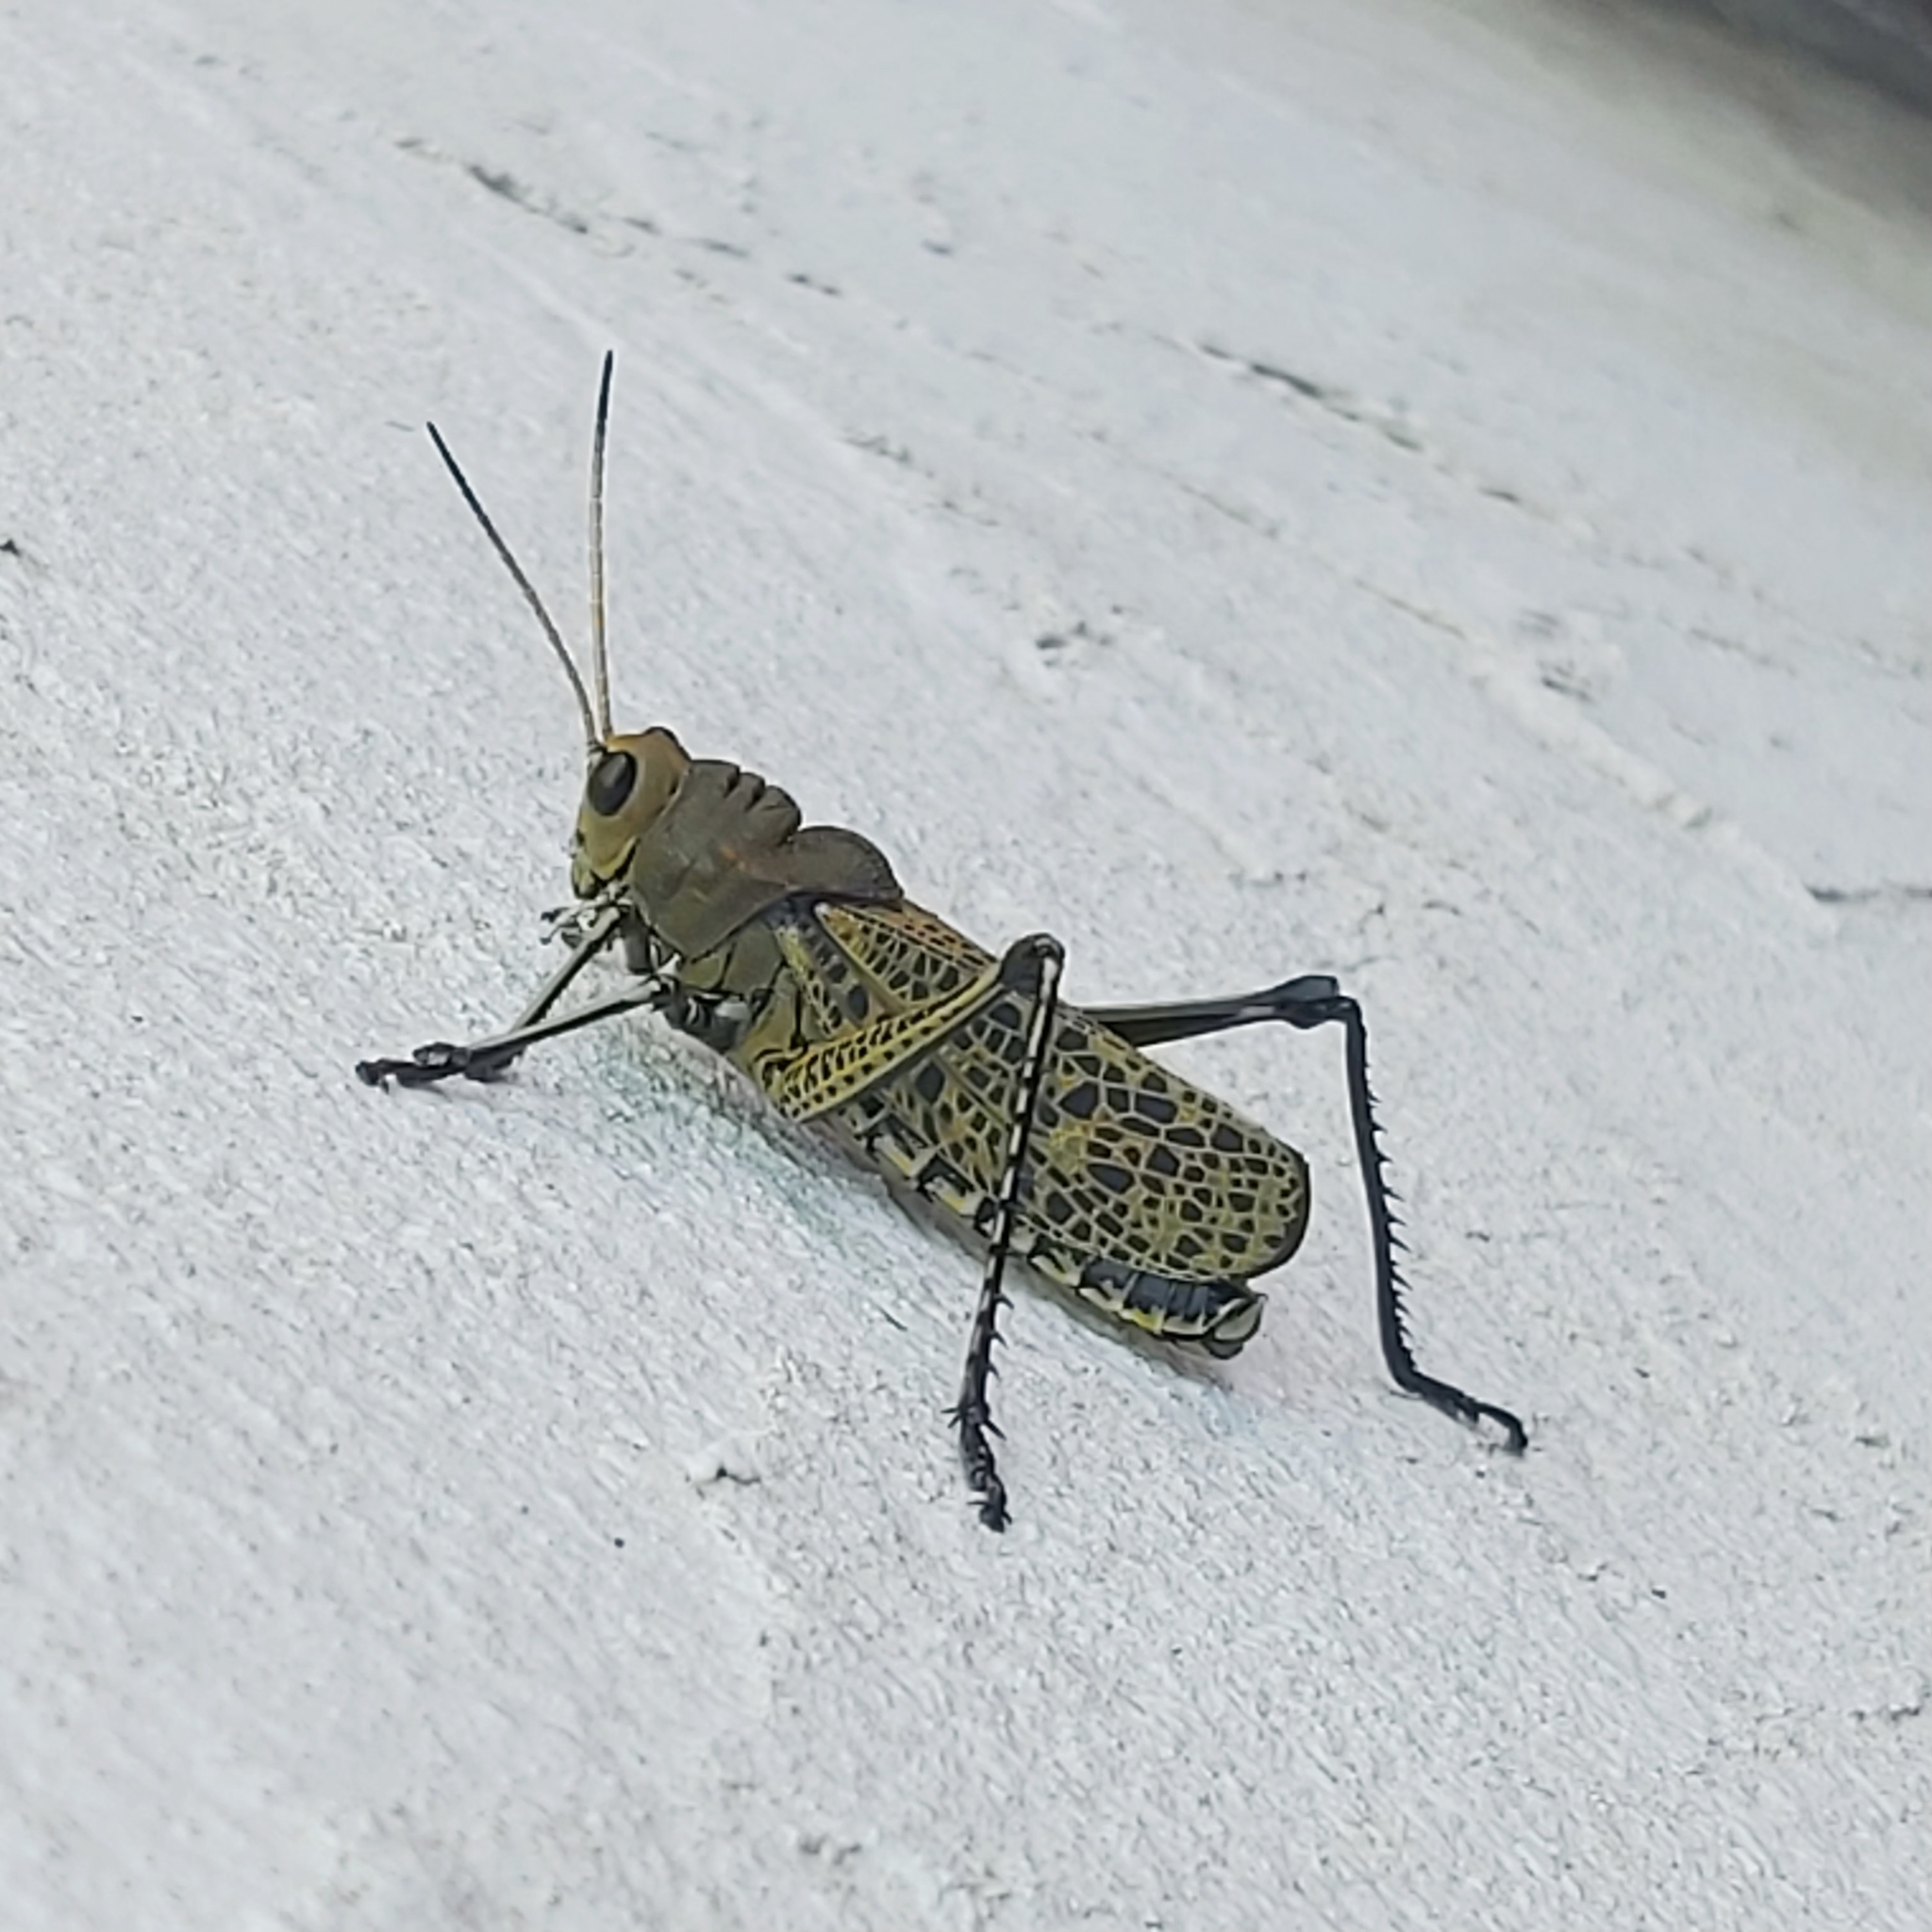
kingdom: Animalia
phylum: Arthropoda
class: Insecta
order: Orthoptera
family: Romaleidae
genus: Romalea
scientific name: Romalea
